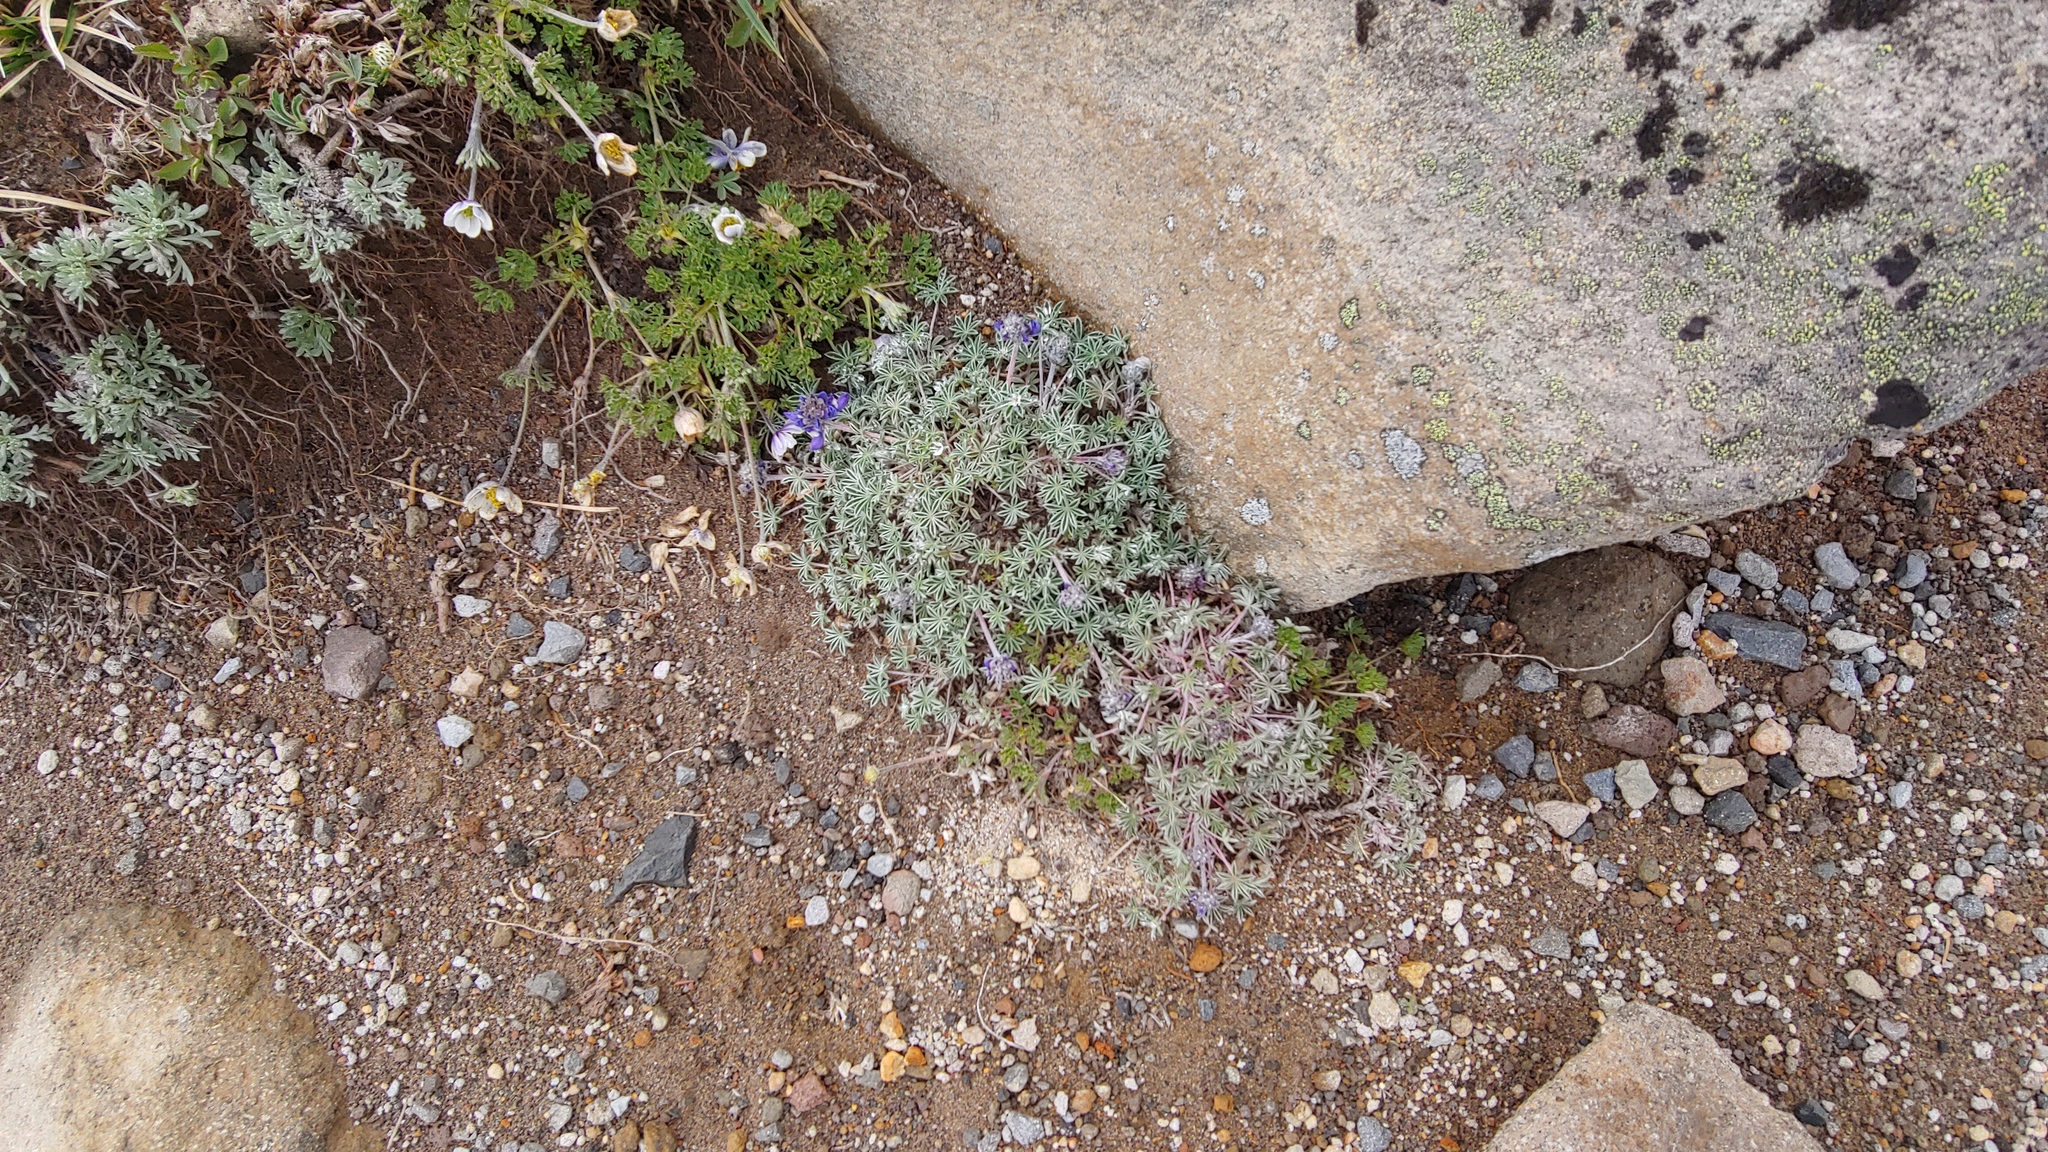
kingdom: Plantae
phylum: Tracheophyta
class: Magnoliopsida
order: Fabales
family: Fabaceae
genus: Lupinus
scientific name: Lupinus sellulus
